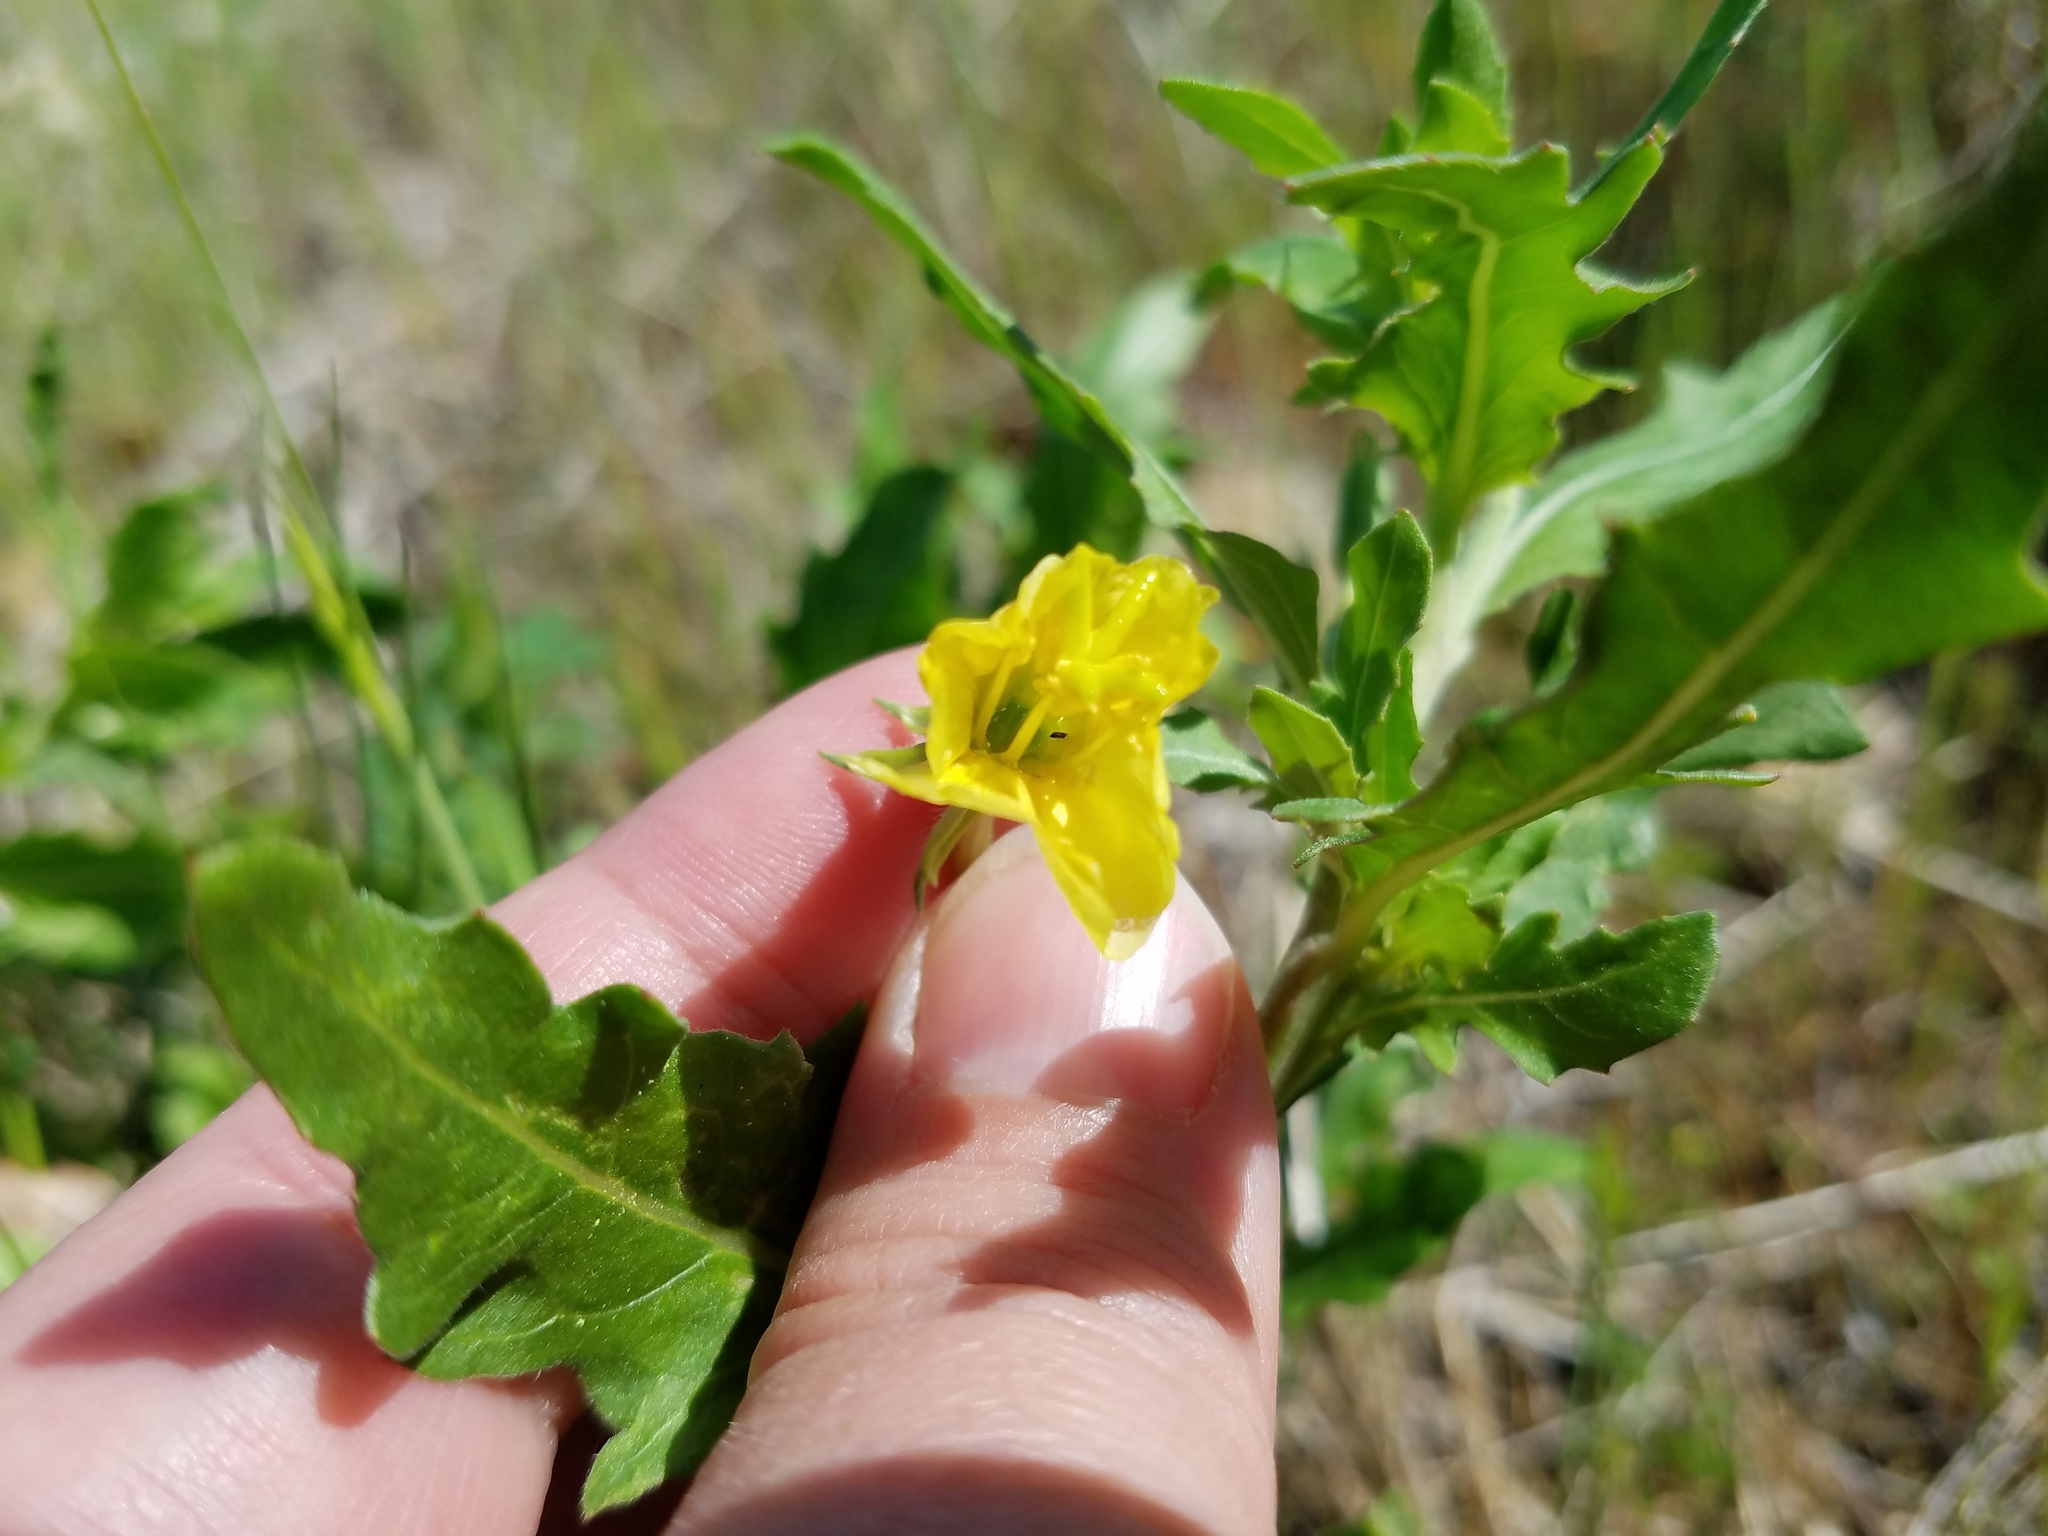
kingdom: Plantae
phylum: Tracheophyta
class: Magnoliopsida
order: Myrtales
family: Onagraceae
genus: Oenothera
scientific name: Oenothera laciniata
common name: Cut-leaved evening-primrose
